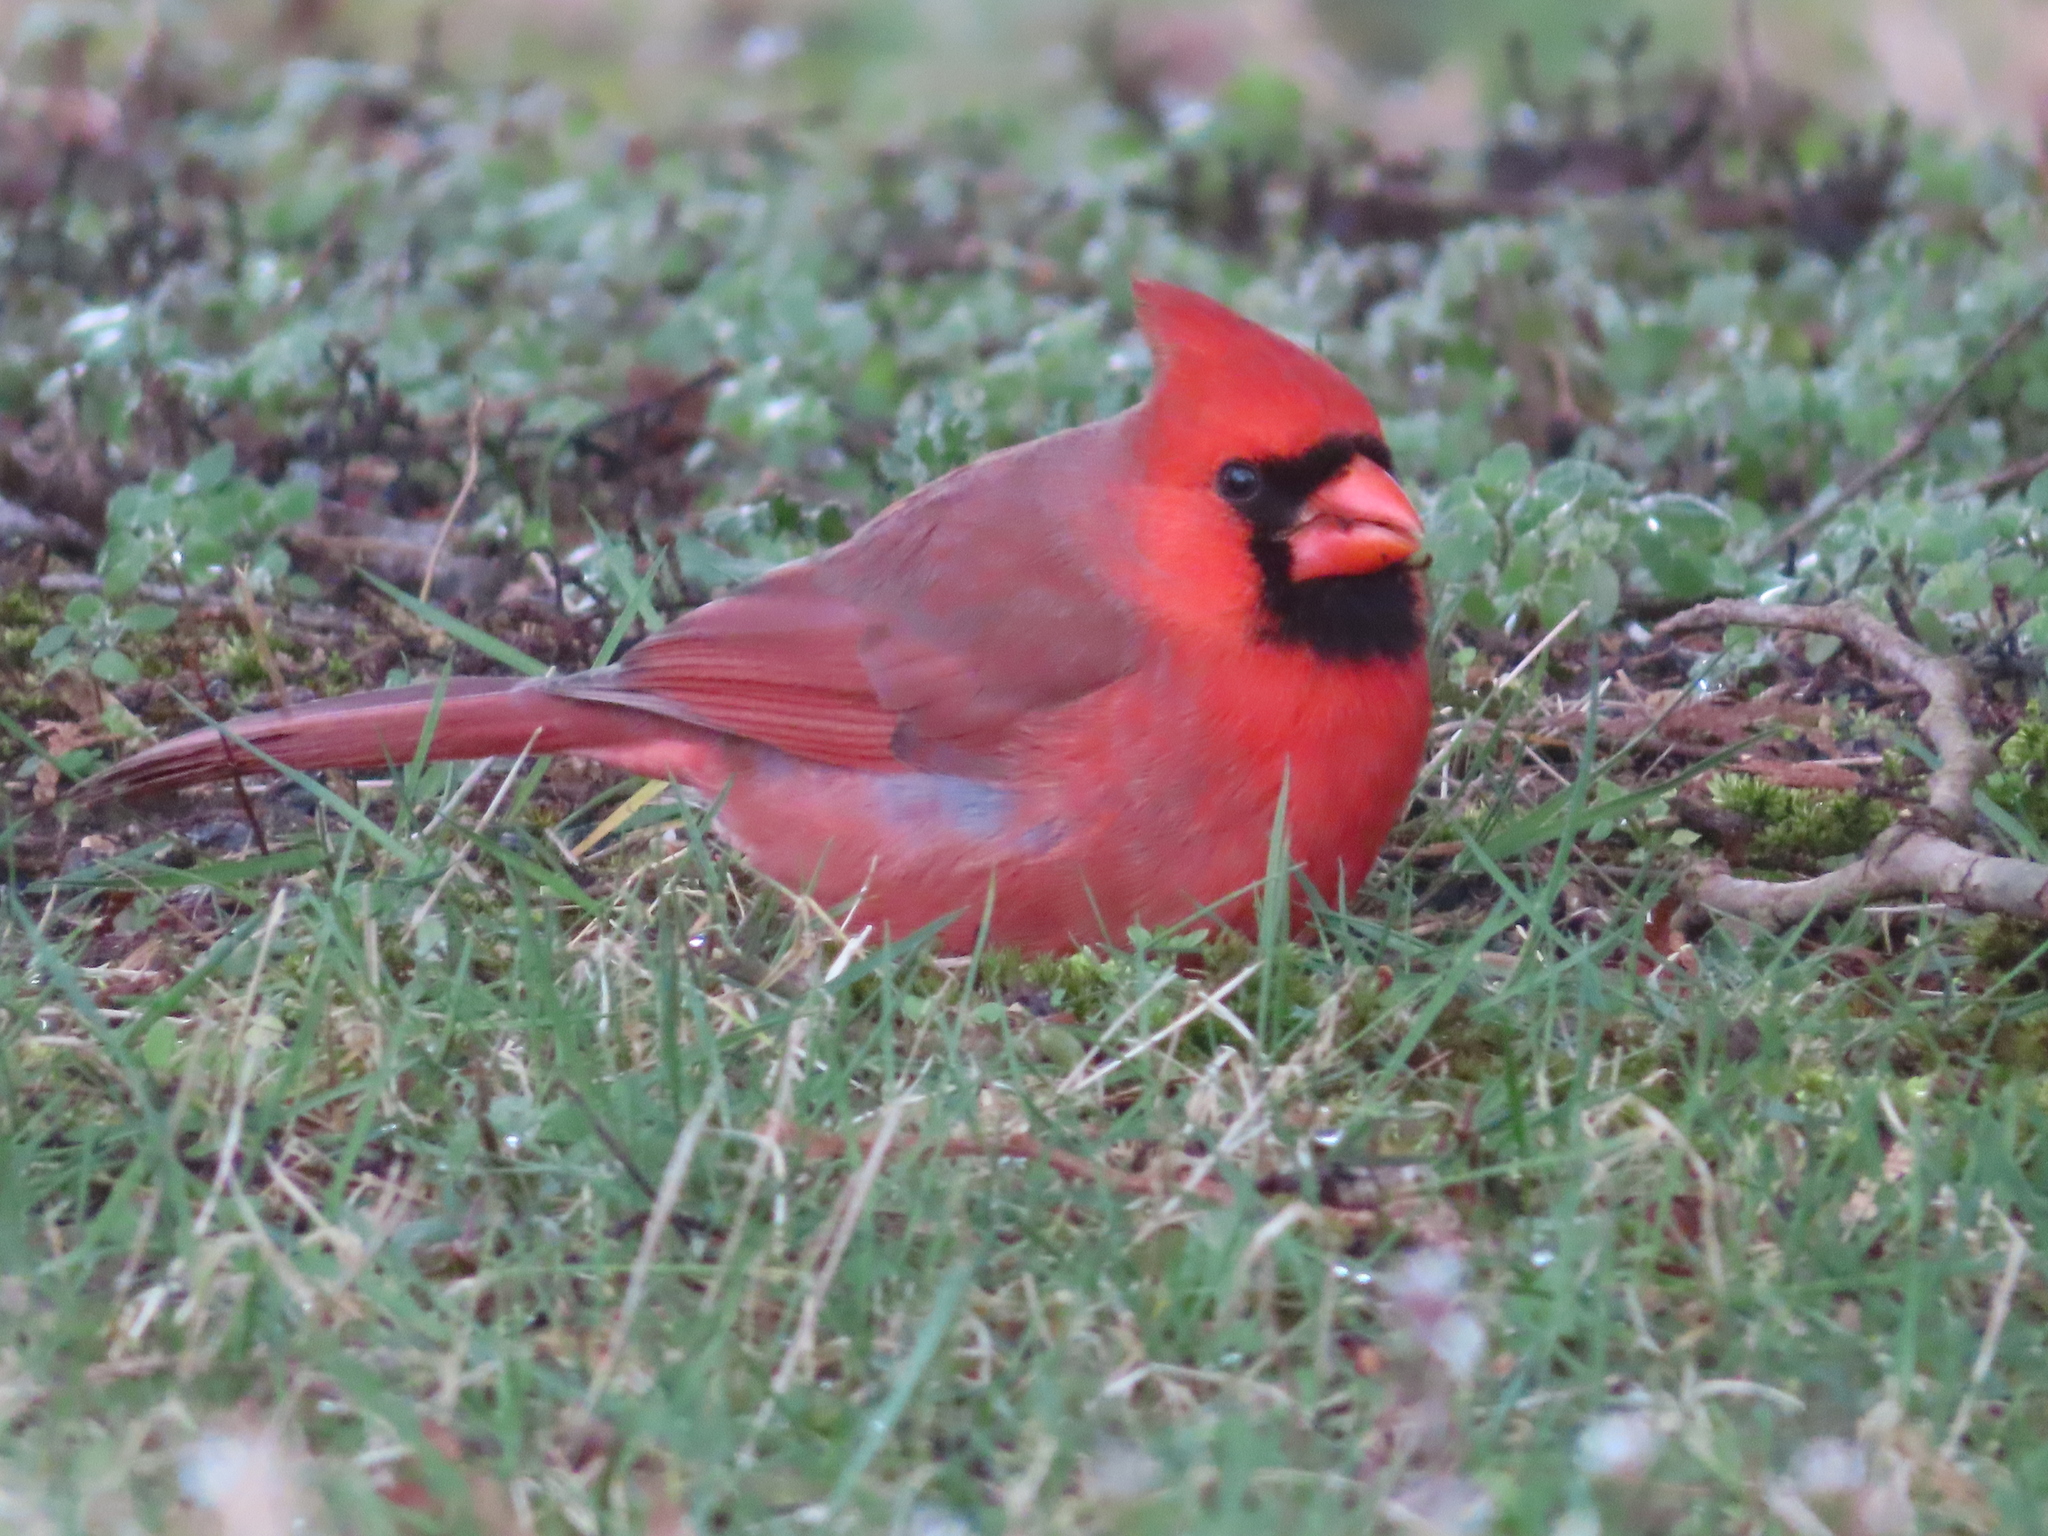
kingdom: Animalia
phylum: Chordata
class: Aves
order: Passeriformes
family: Cardinalidae
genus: Cardinalis
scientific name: Cardinalis cardinalis
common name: Northern cardinal
